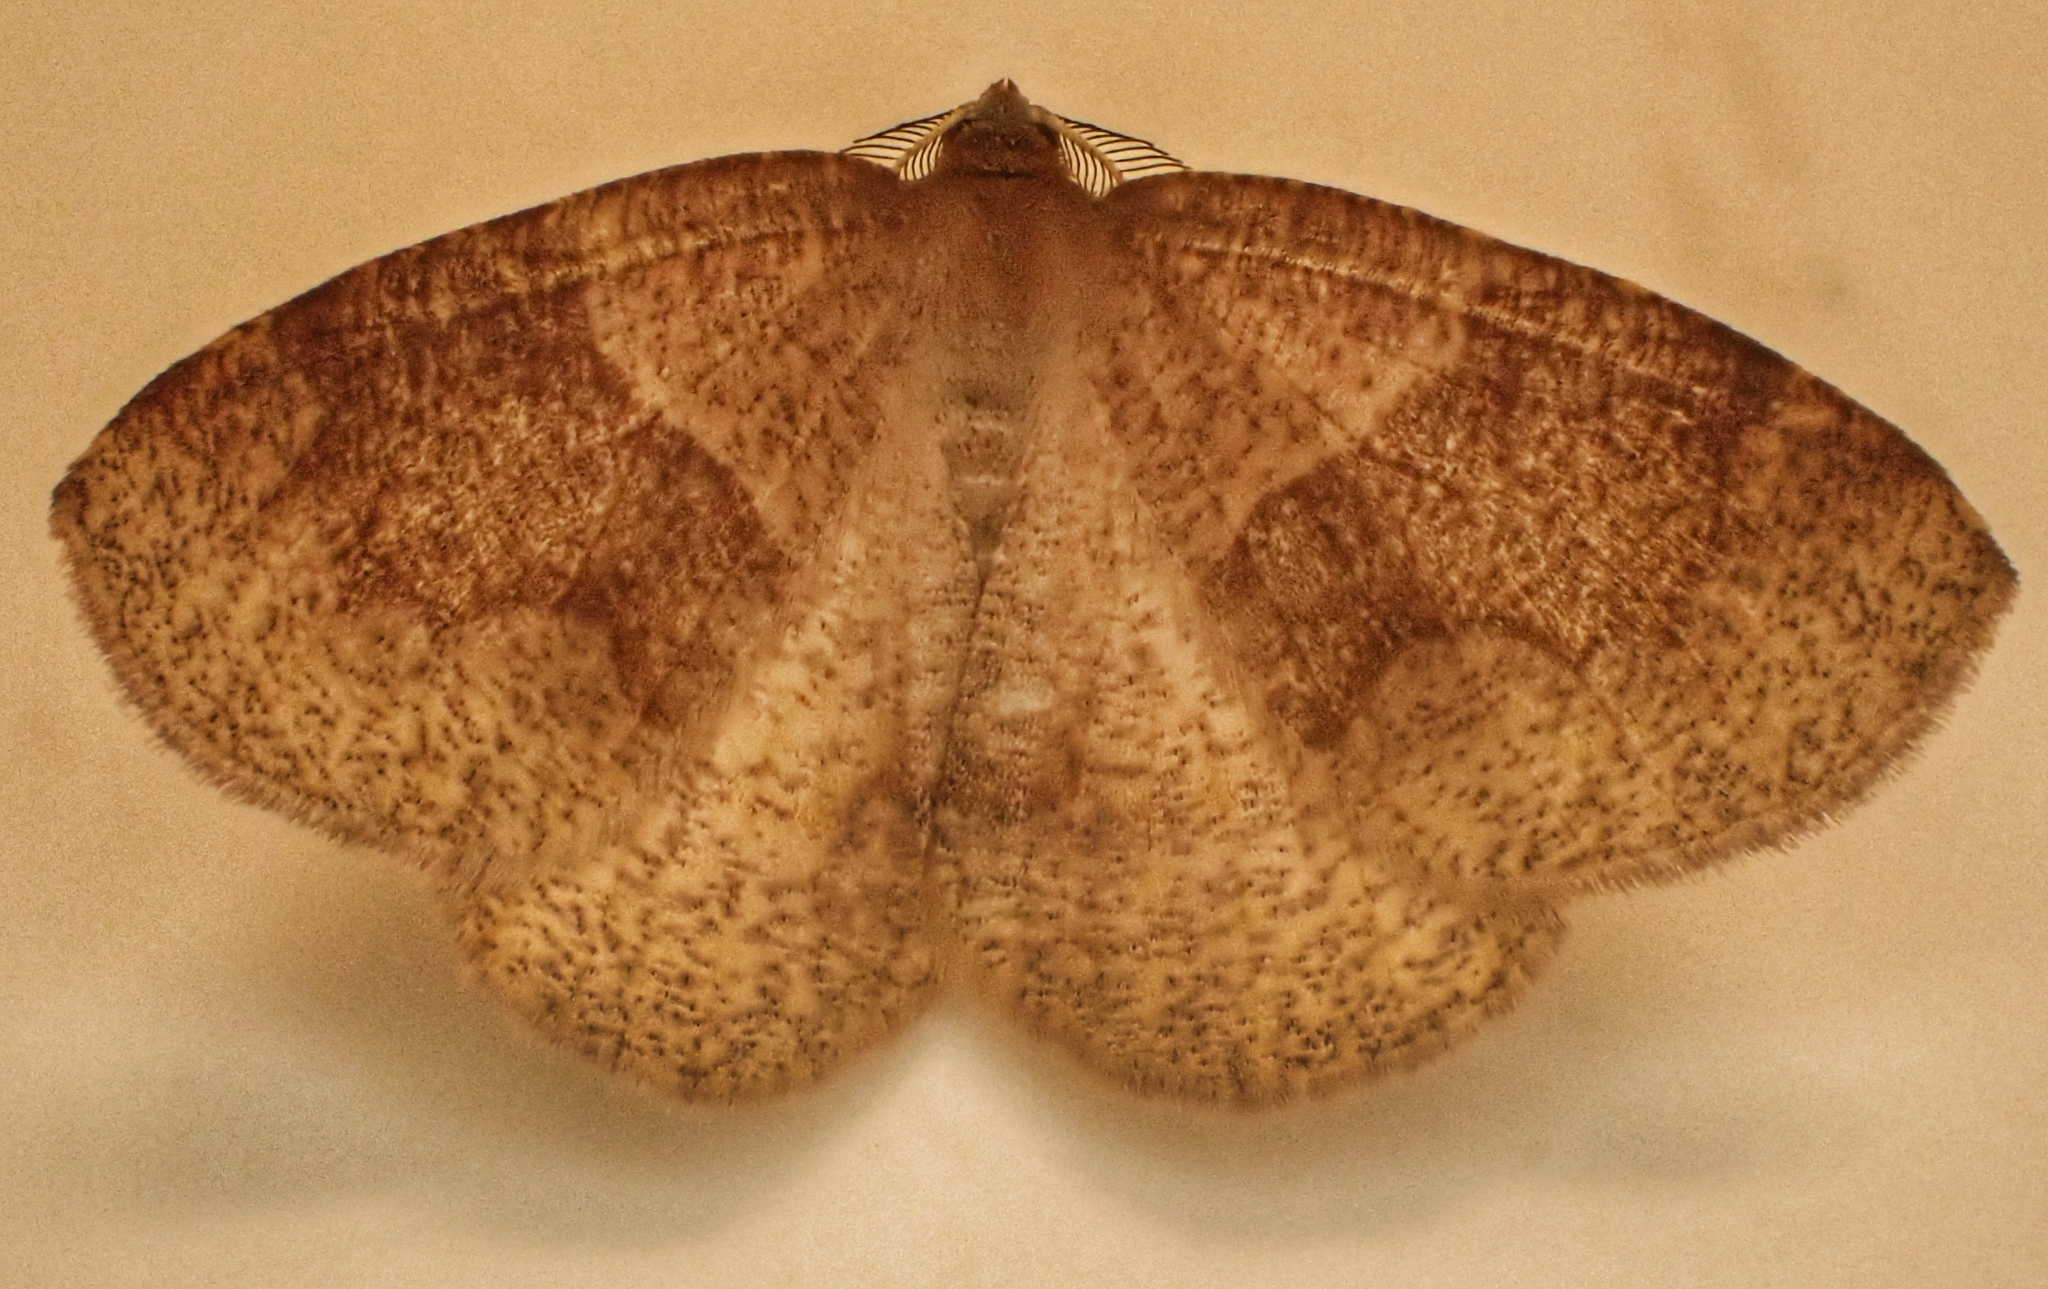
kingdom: Animalia
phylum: Arthropoda
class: Insecta
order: Lepidoptera
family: Geometridae
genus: Plagodis
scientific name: Plagodis pulveraria
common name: Barred umber
